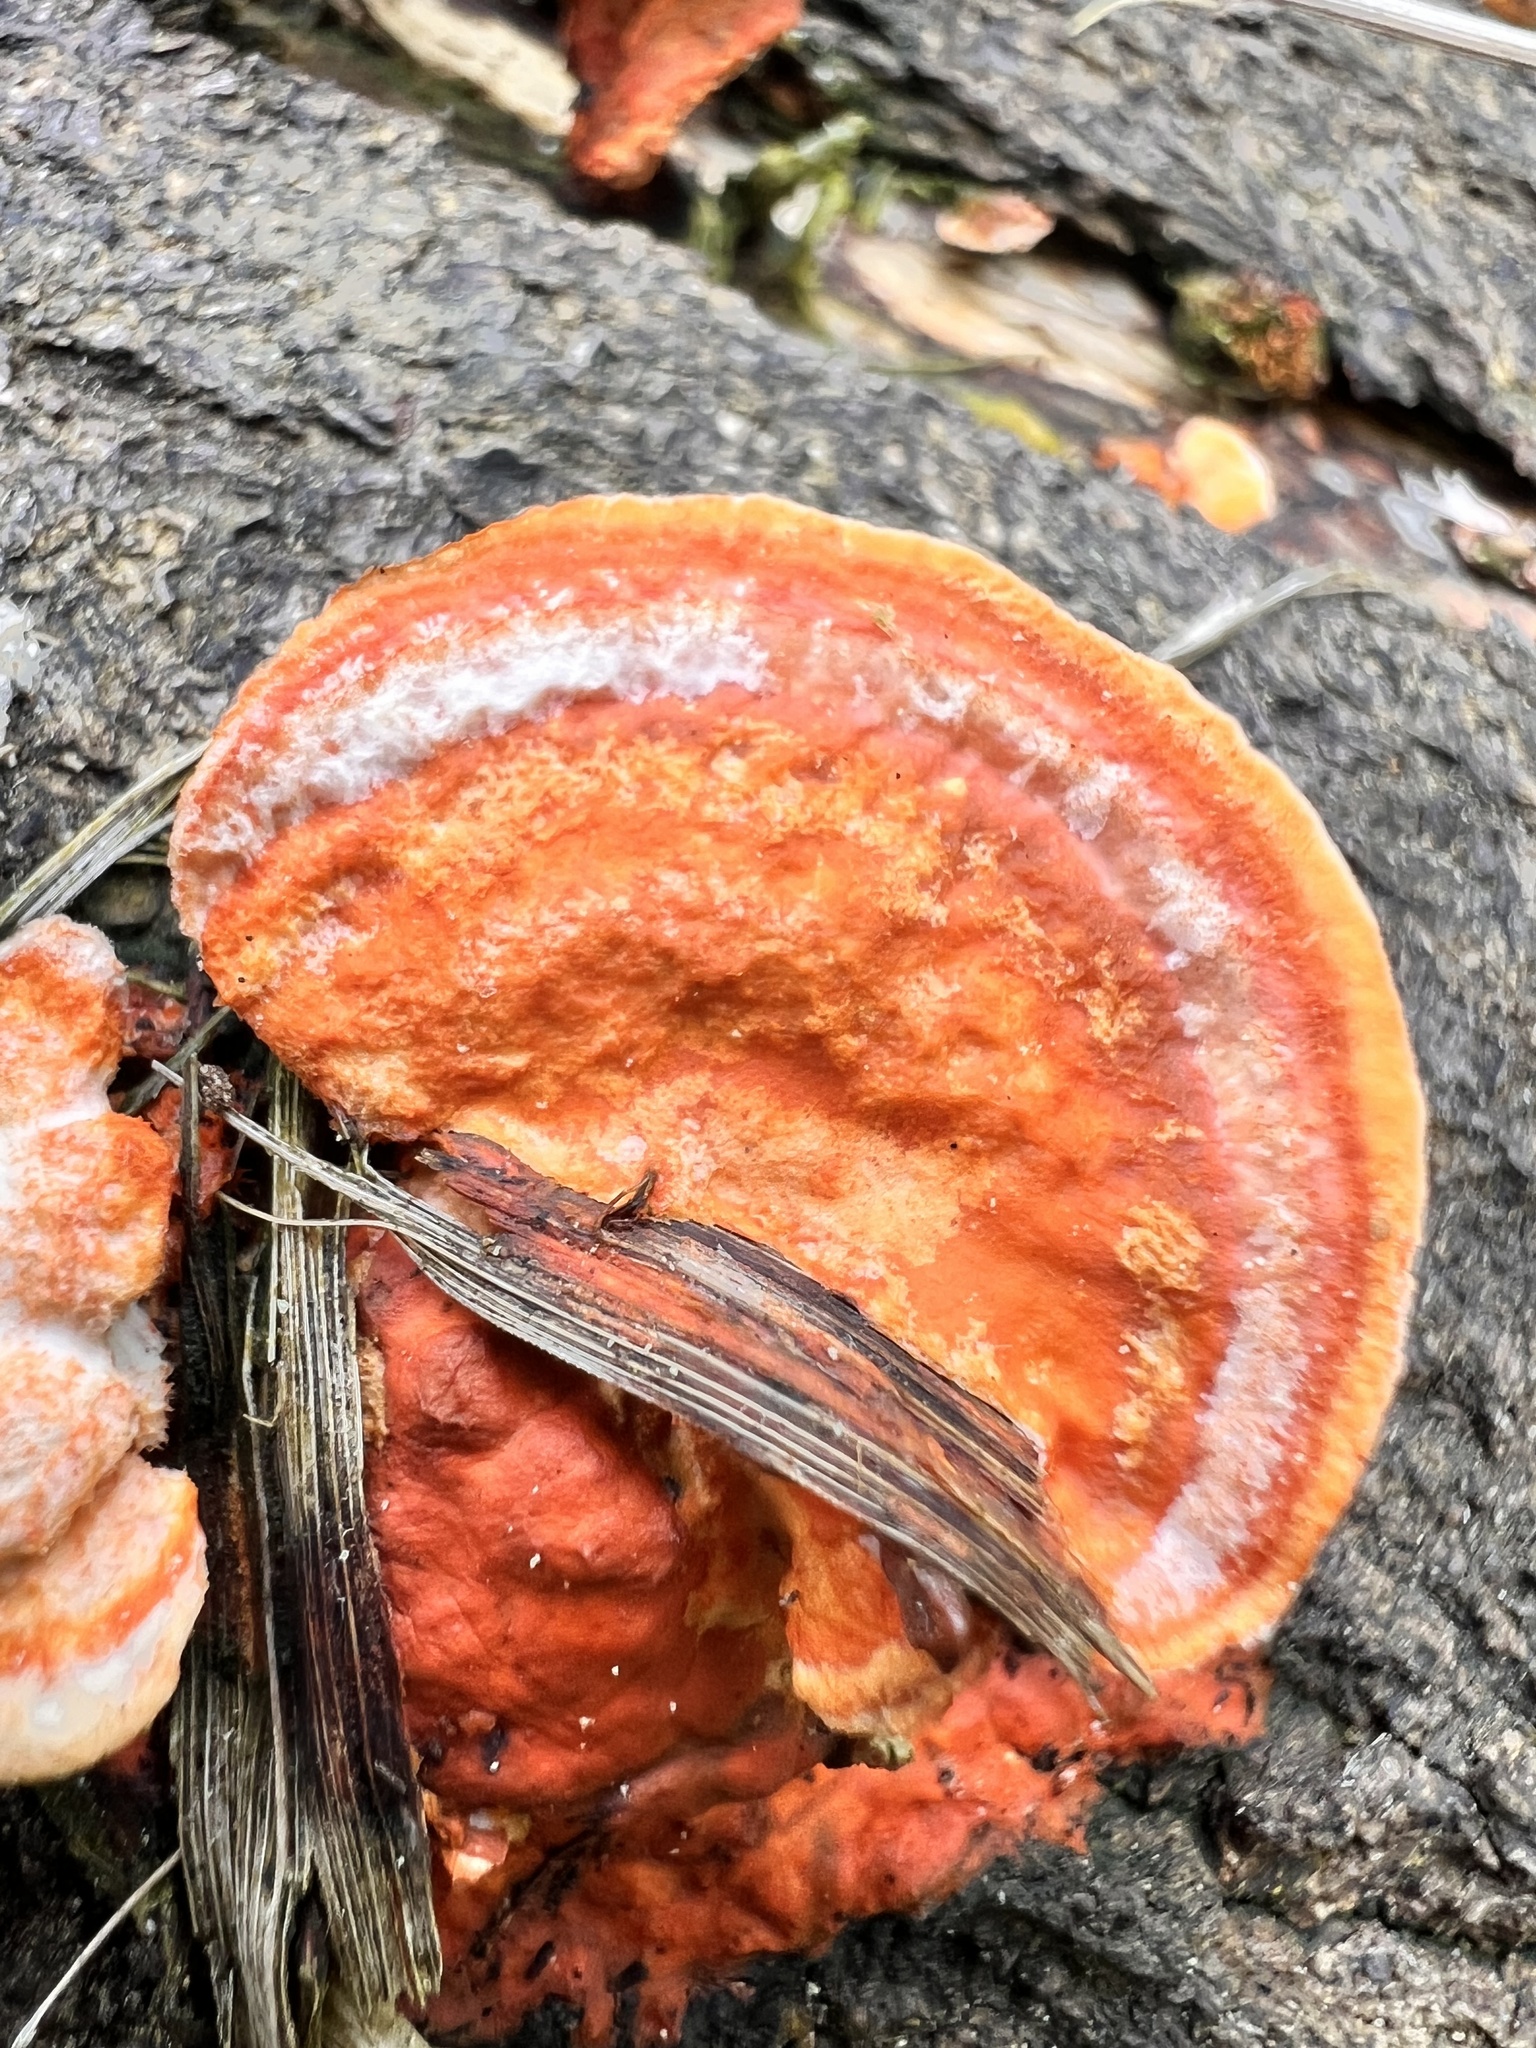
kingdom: Fungi
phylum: Basidiomycota
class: Agaricomycetes
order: Polyporales
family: Polyporaceae
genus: Trametes
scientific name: Trametes coccinea
